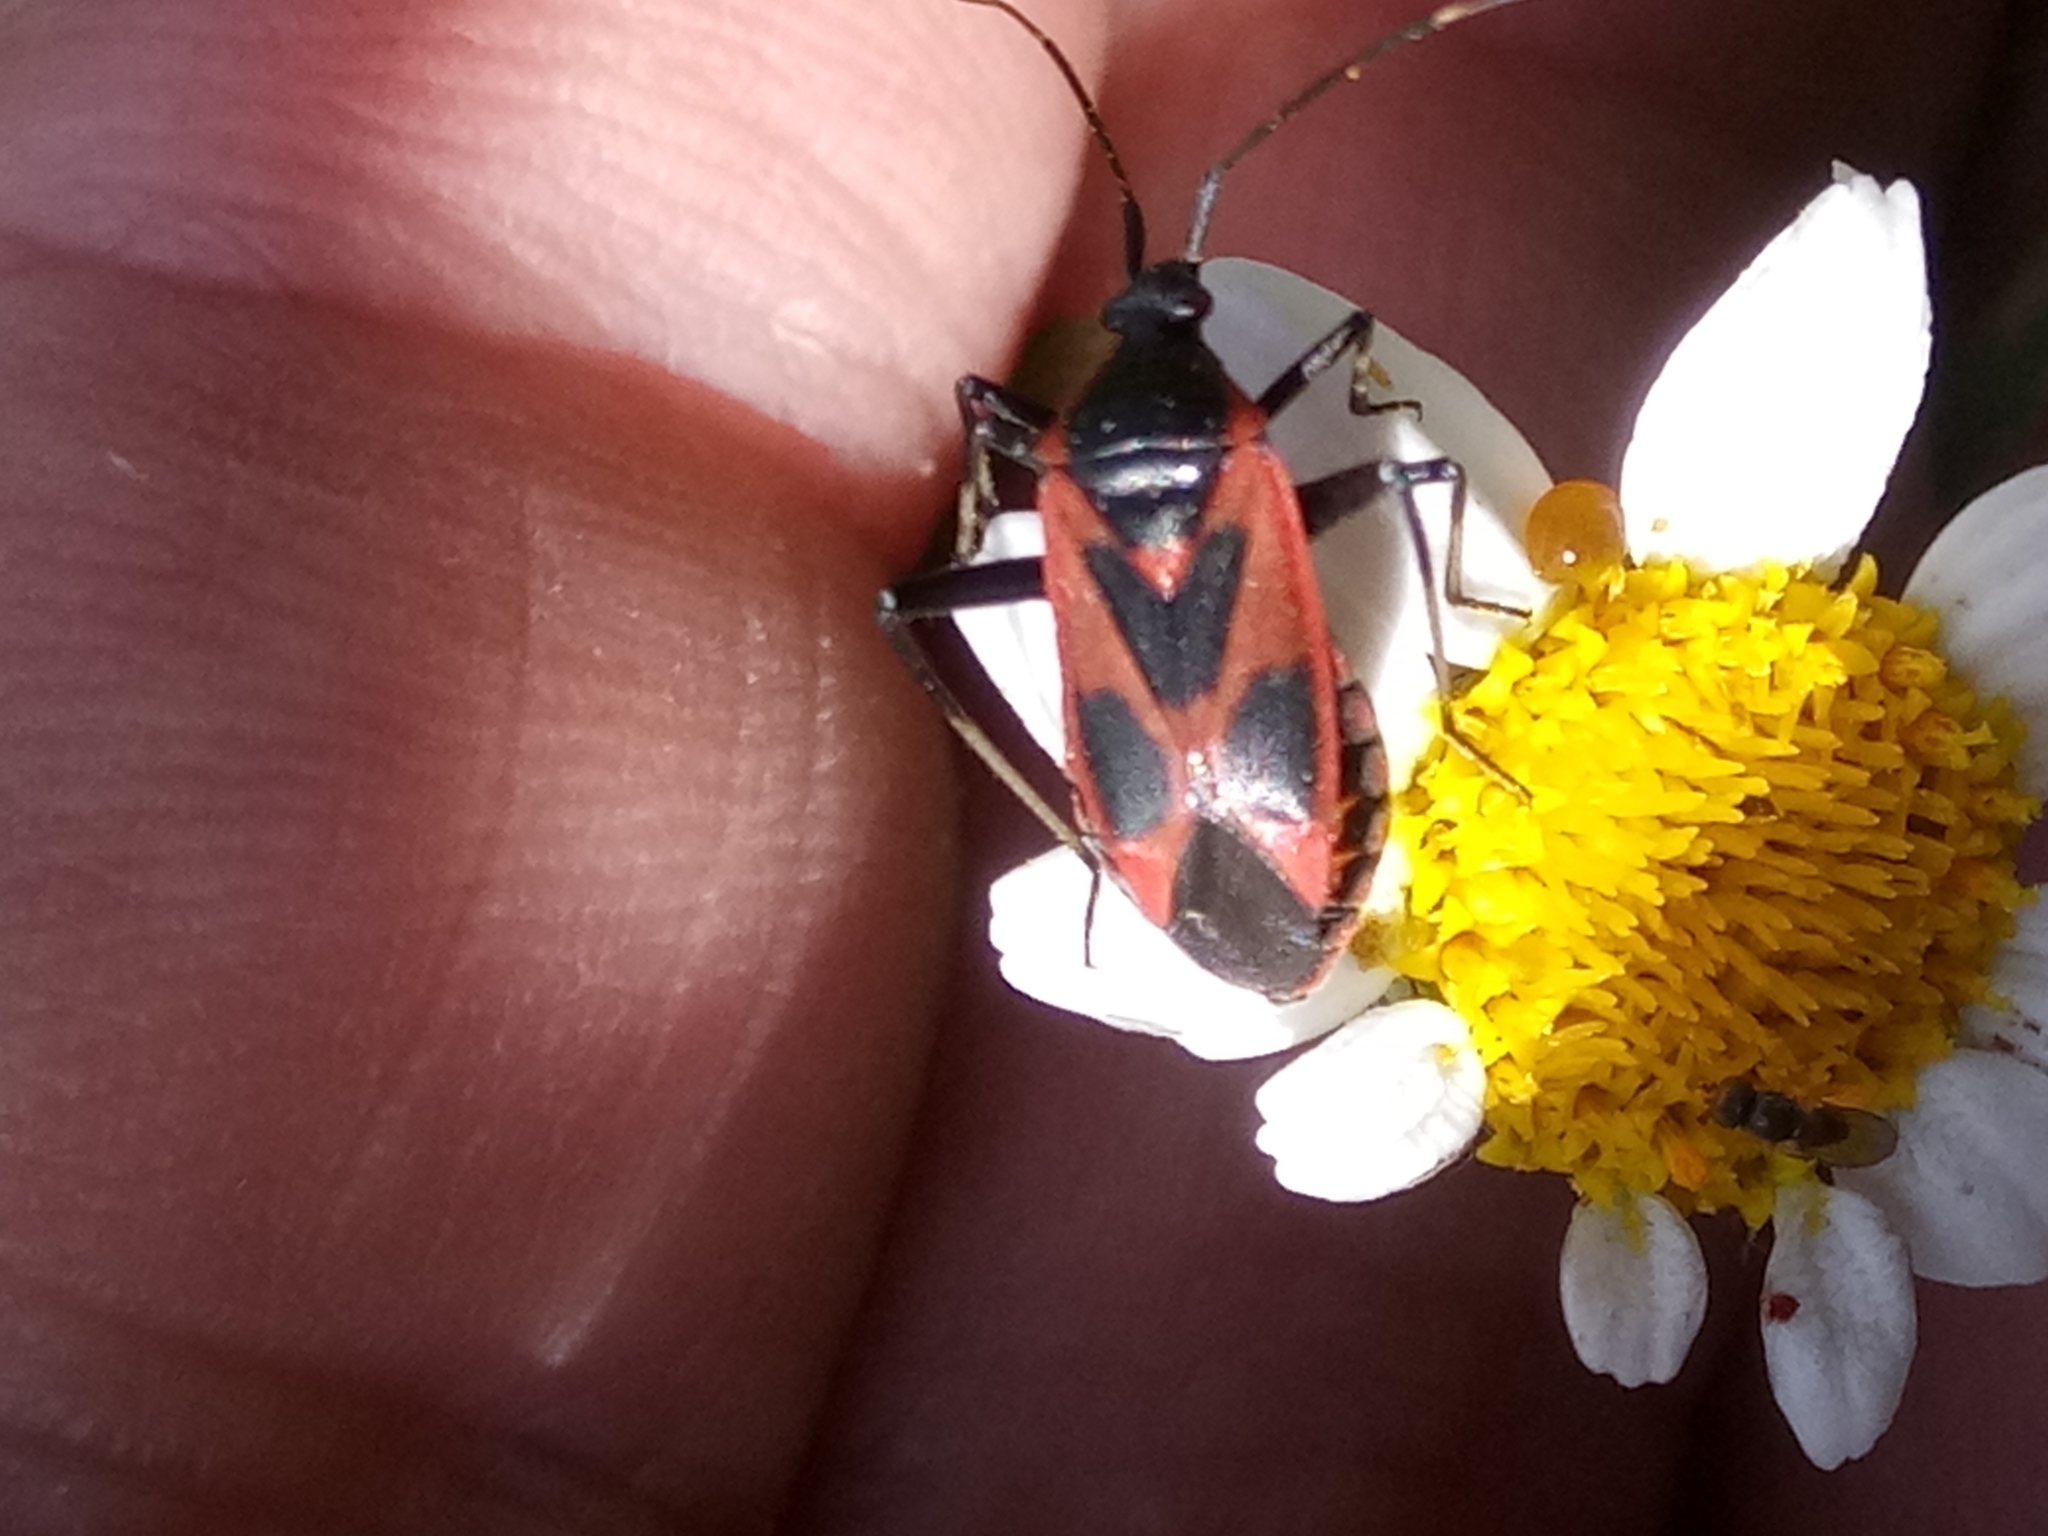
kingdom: Animalia
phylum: Arthropoda
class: Insecta
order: Hemiptera
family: Miridae
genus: Calocoris
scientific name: Calocoris nemoralis
